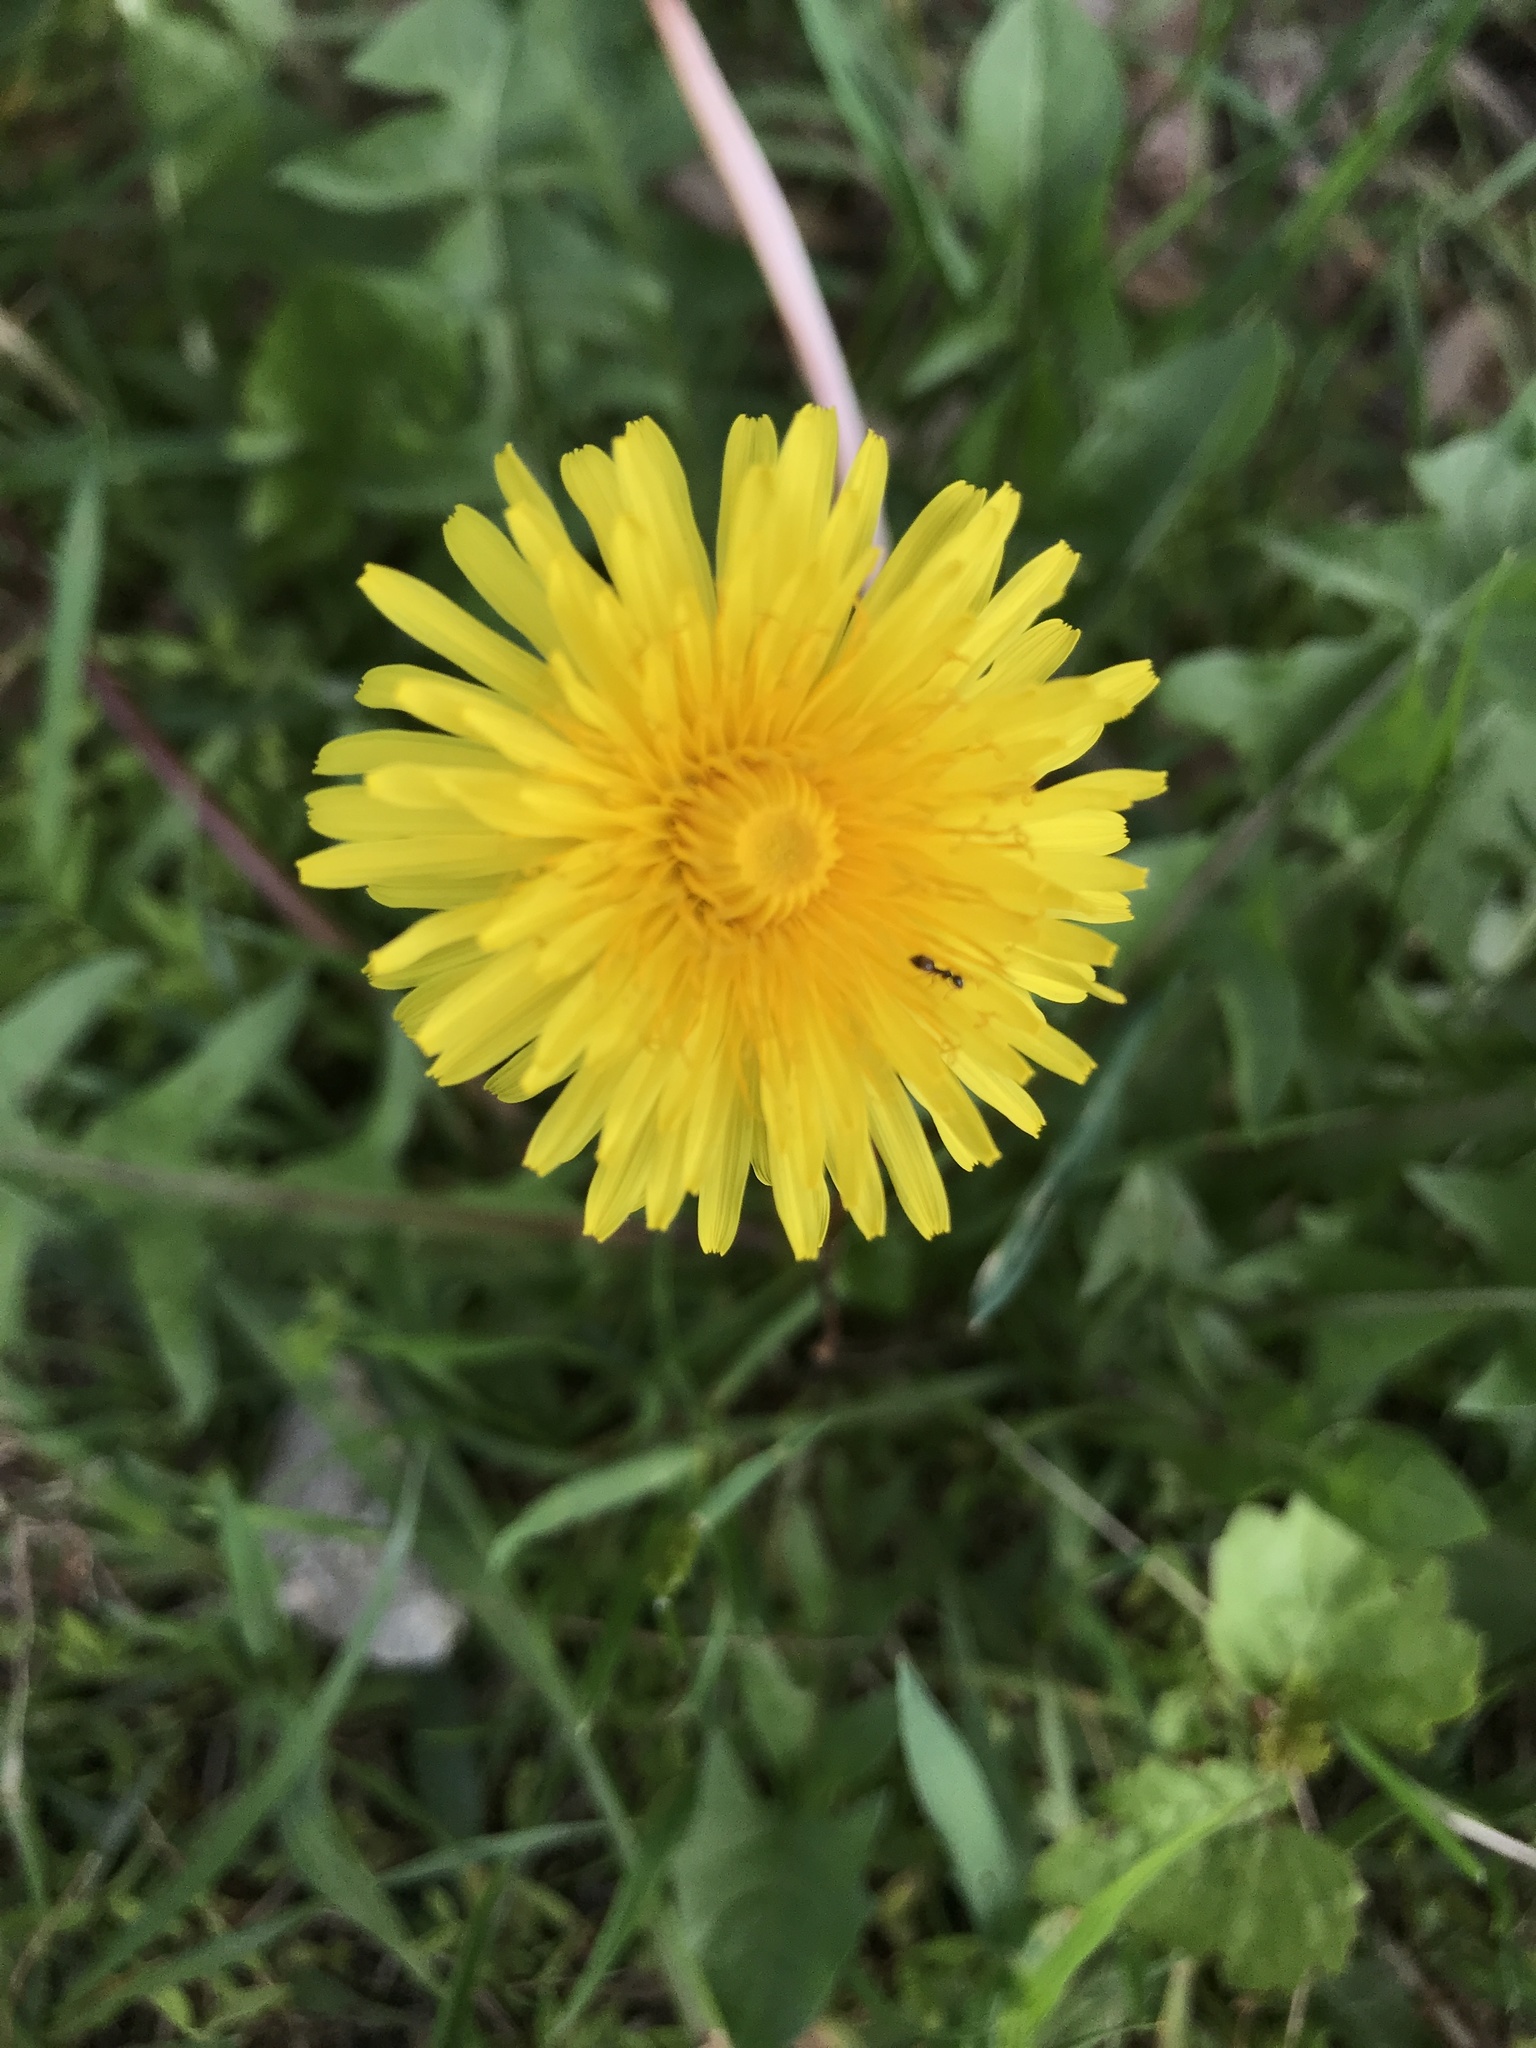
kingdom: Plantae
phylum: Tracheophyta
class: Magnoliopsida
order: Asterales
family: Asteraceae
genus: Taraxacum
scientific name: Taraxacum officinale
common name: Common dandelion
